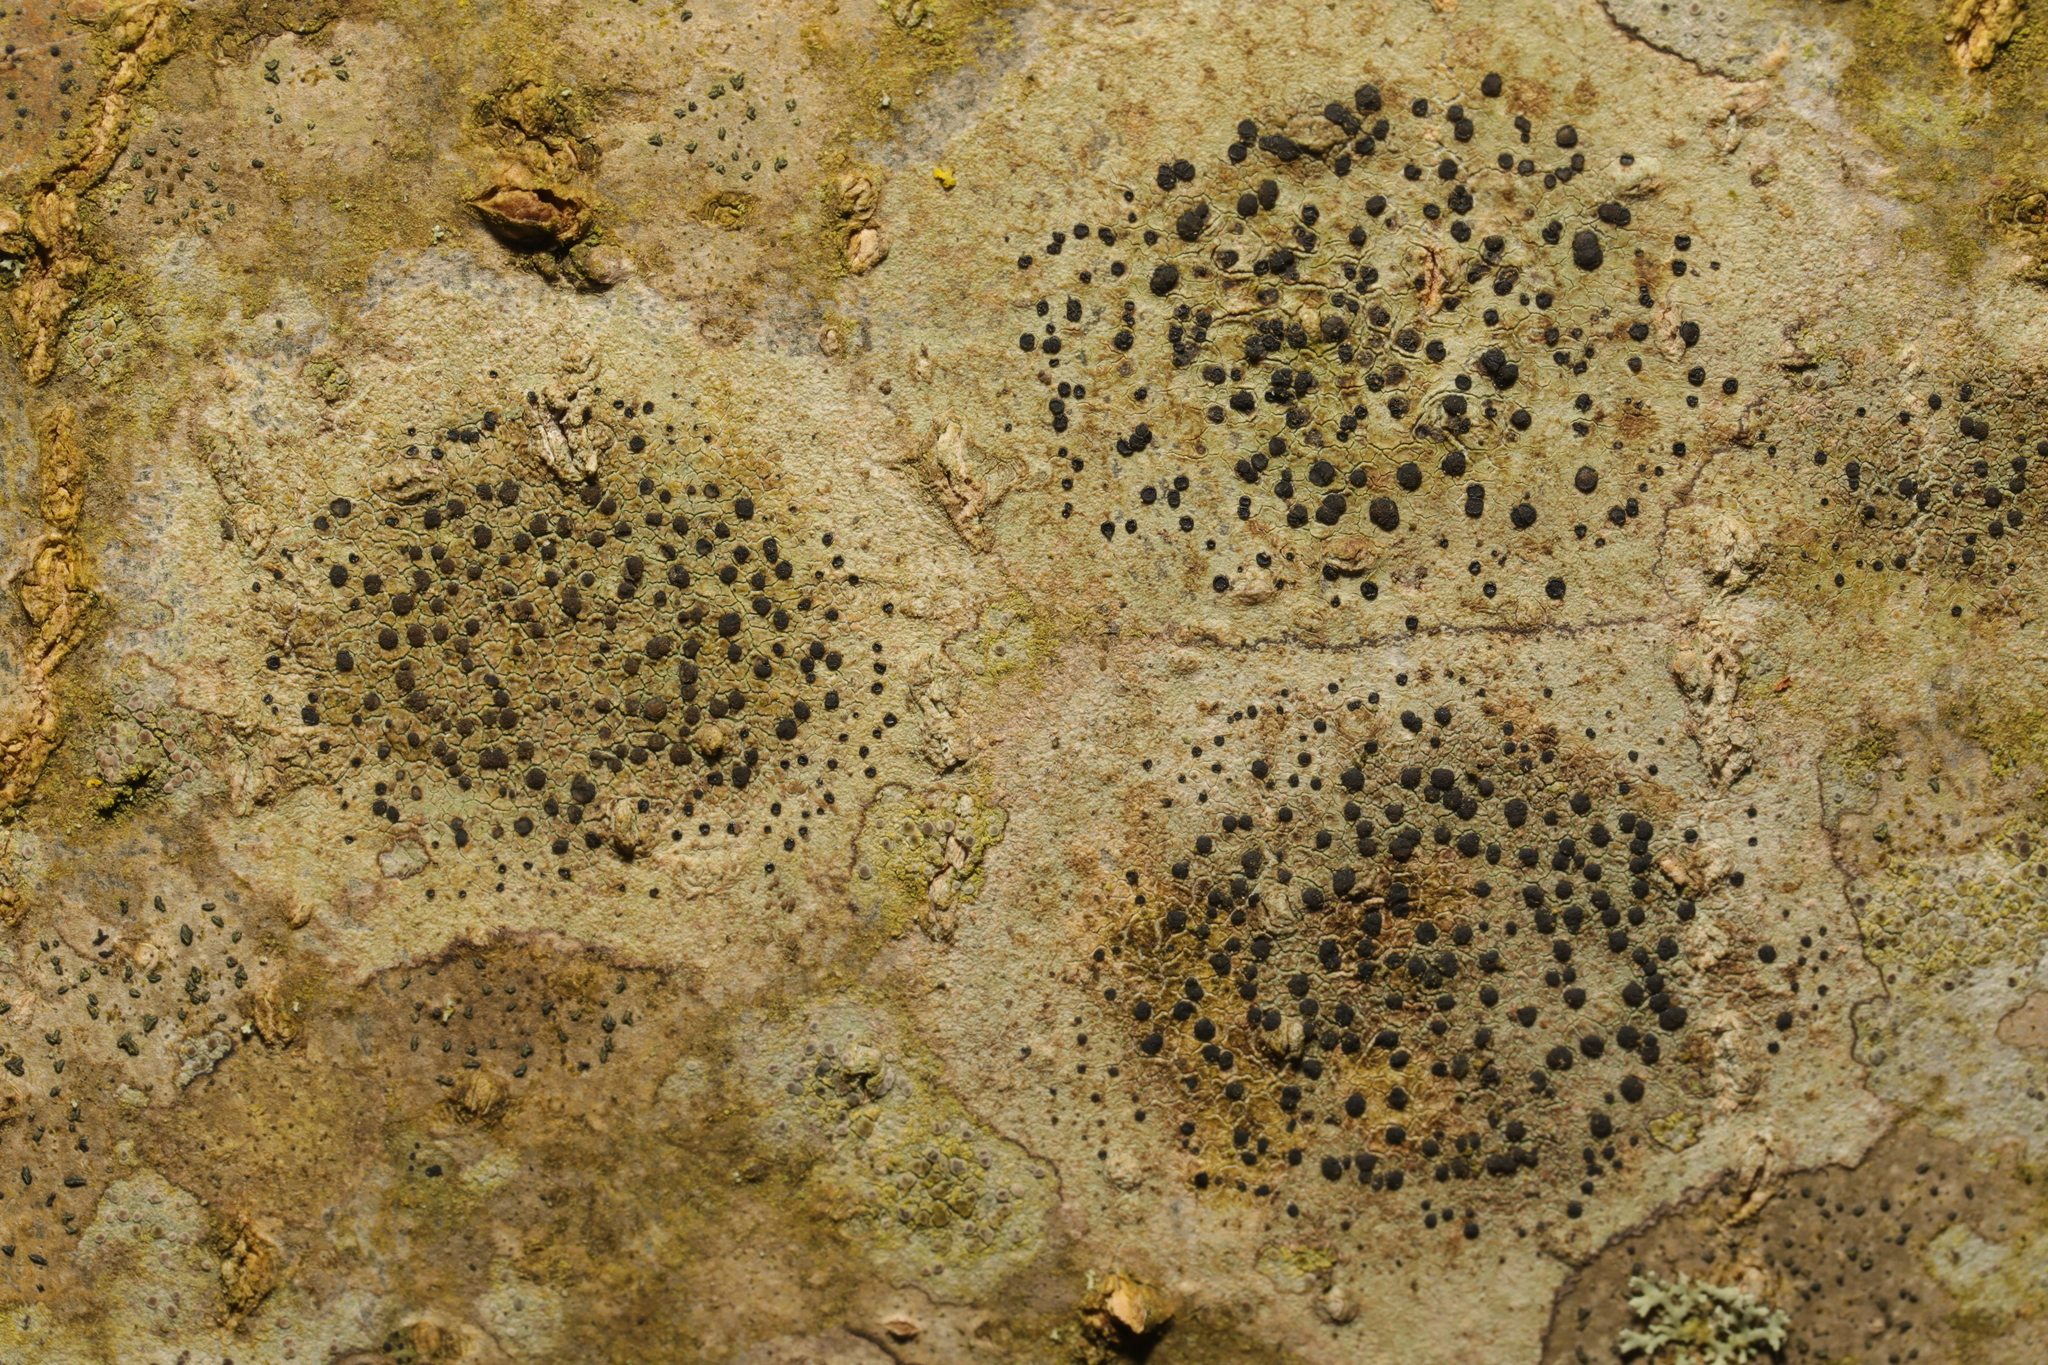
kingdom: Fungi
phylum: Ascomycota
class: Lecanoromycetes
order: Lecanorales
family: Lecanoraceae
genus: Lecidella
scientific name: Lecidella elaeochroma
